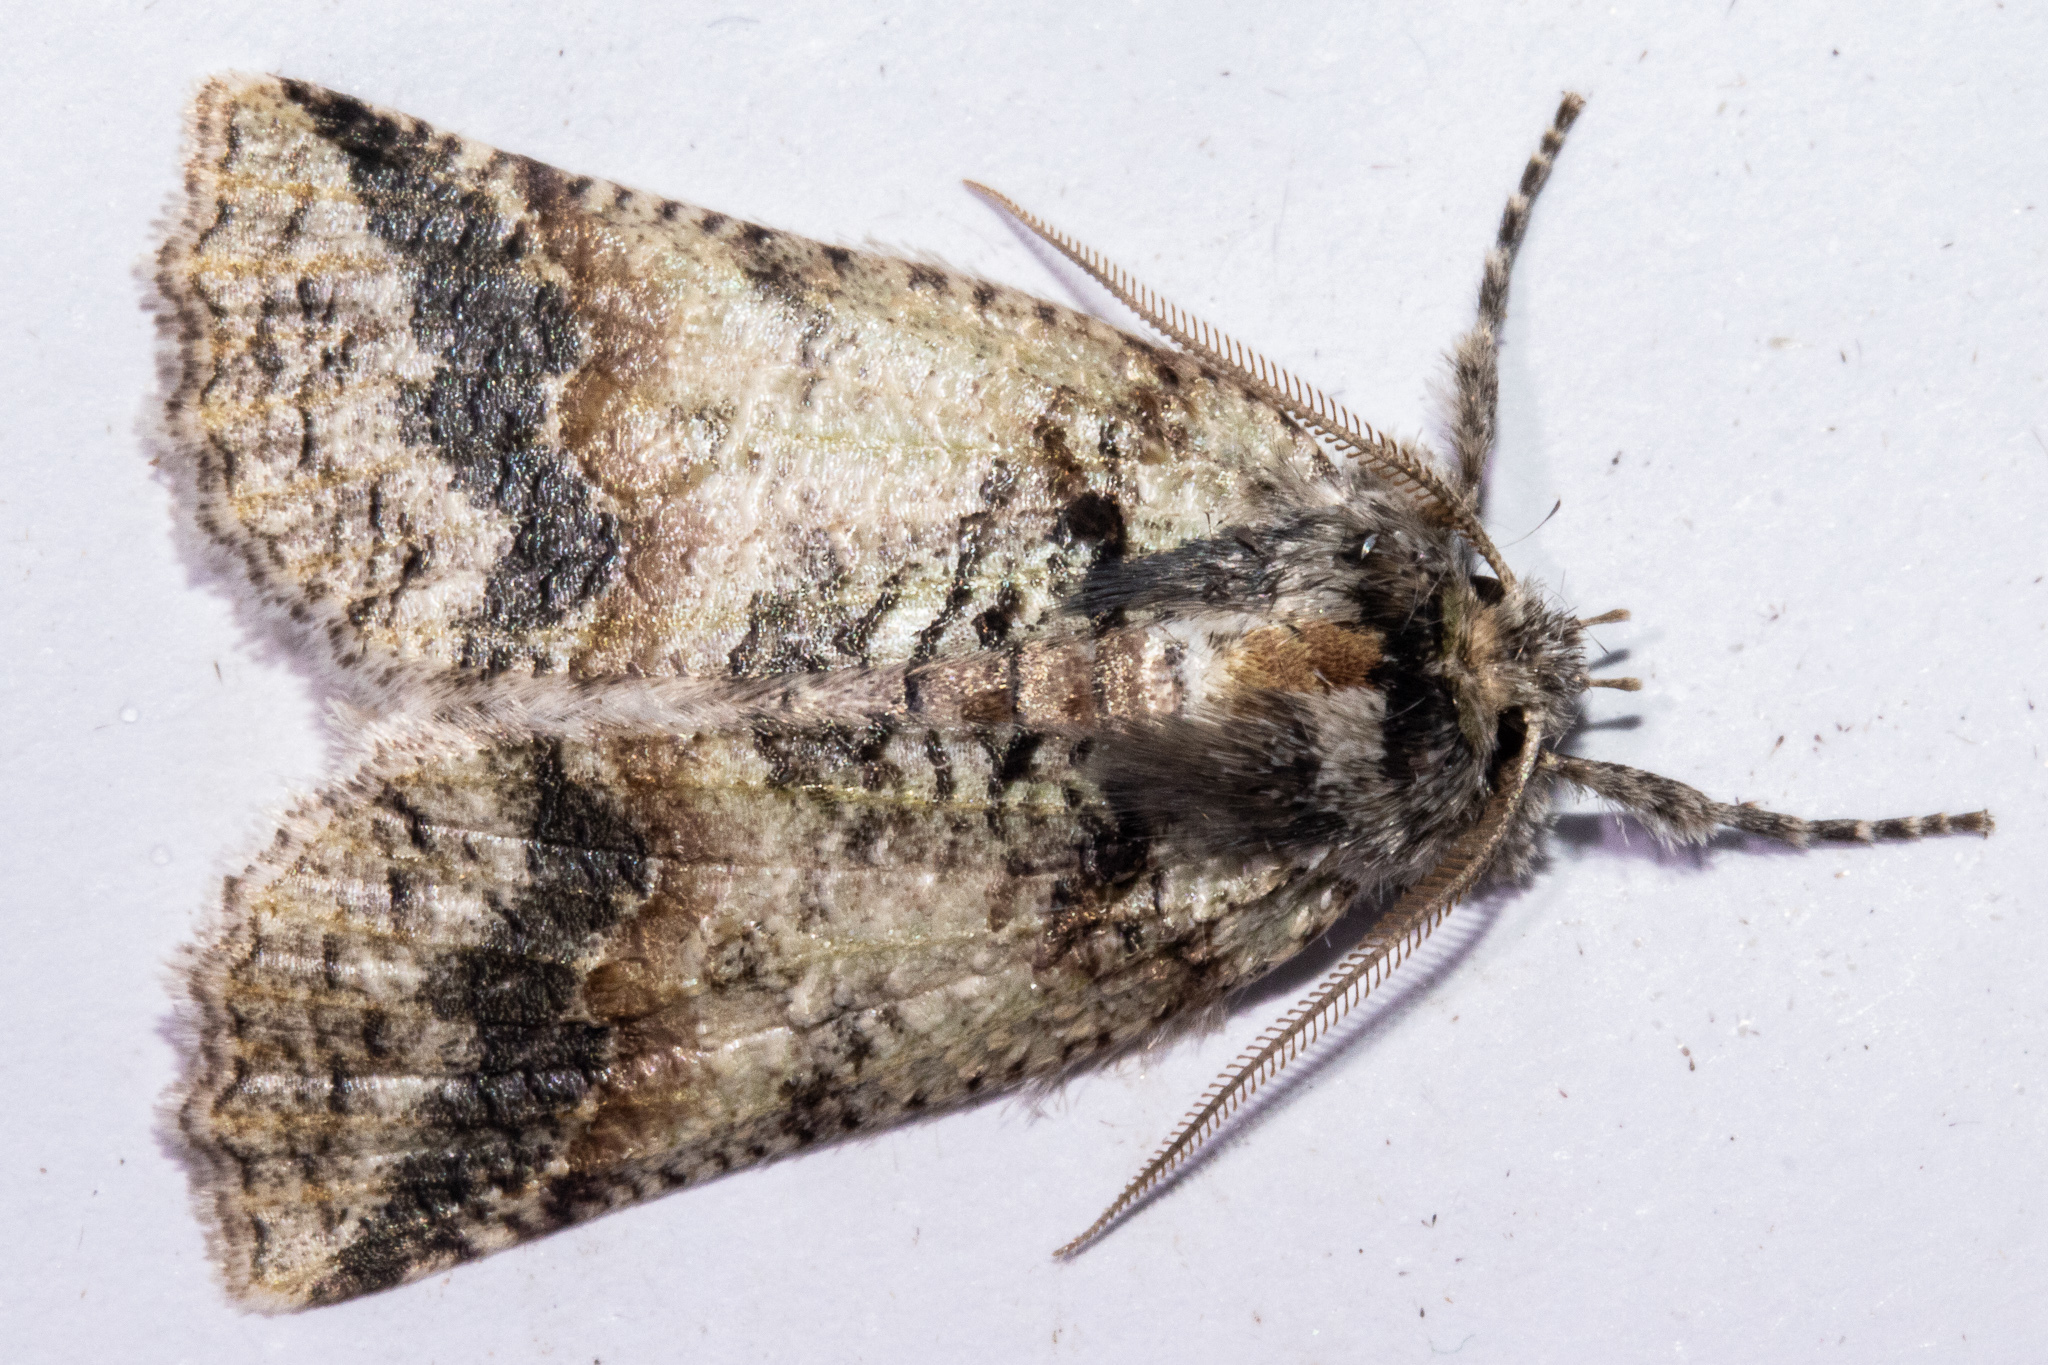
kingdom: Animalia
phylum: Arthropoda
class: Insecta
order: Lepidoptera
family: Geometridae
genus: Declana
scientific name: Declana floccosa
